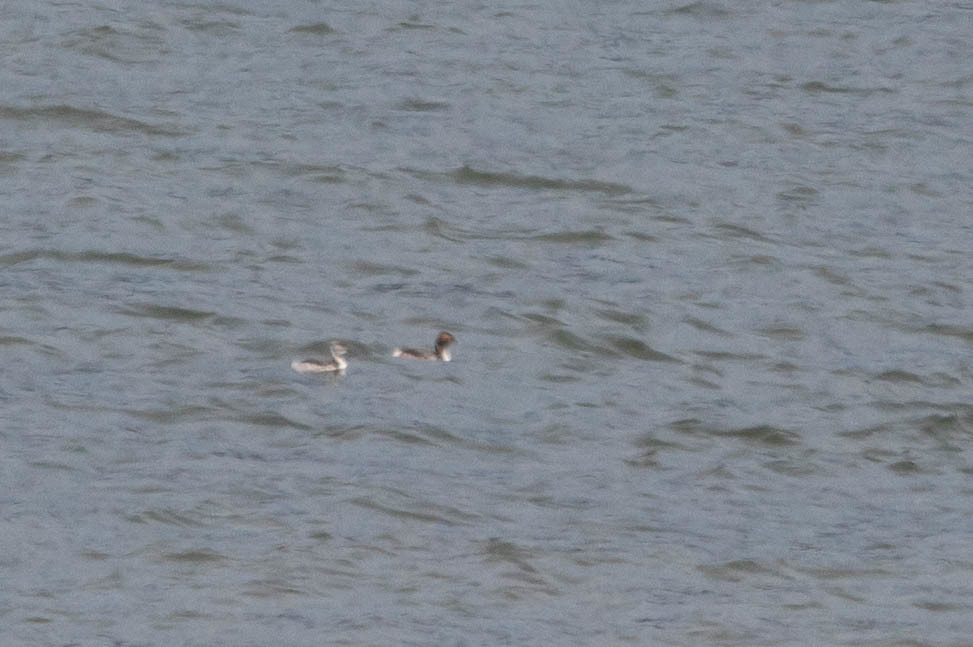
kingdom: Animalia
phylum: Chordata
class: Aves
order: Podicipediformes
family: Podicipedidae
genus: Podiceps
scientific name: Podiceps auritus
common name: Horned grebe
